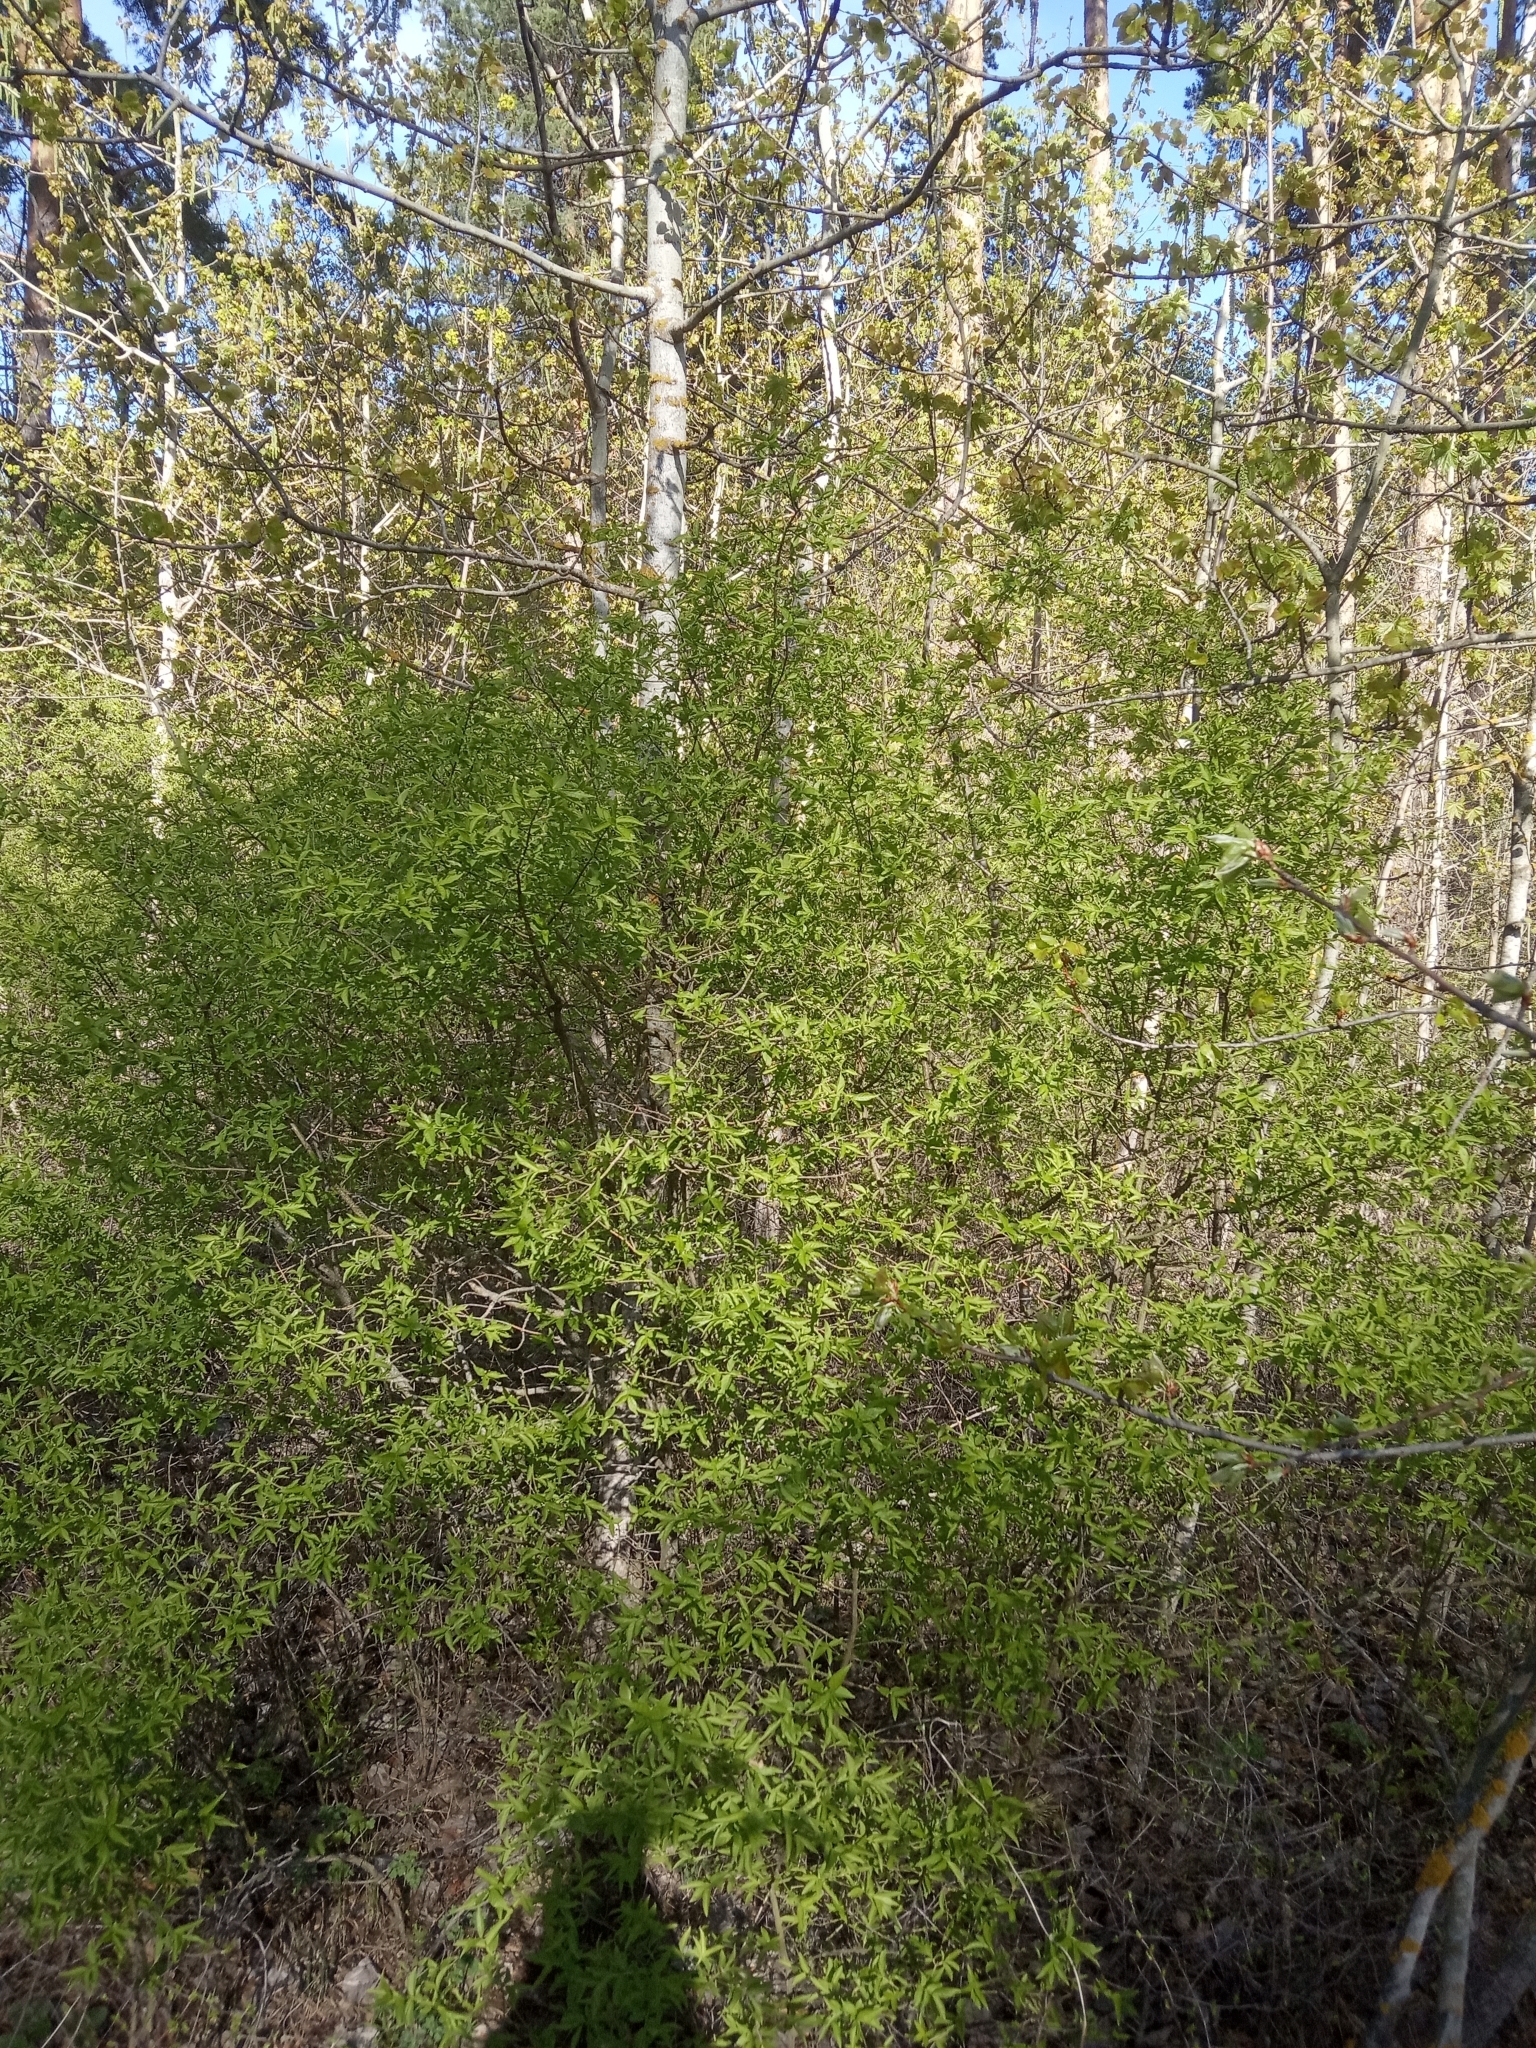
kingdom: Plantae
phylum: Tracheophyta
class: Magnoliopsida
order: Celastrales
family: Celastraceae
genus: Euonymus
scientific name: Euonymus verrucosus
